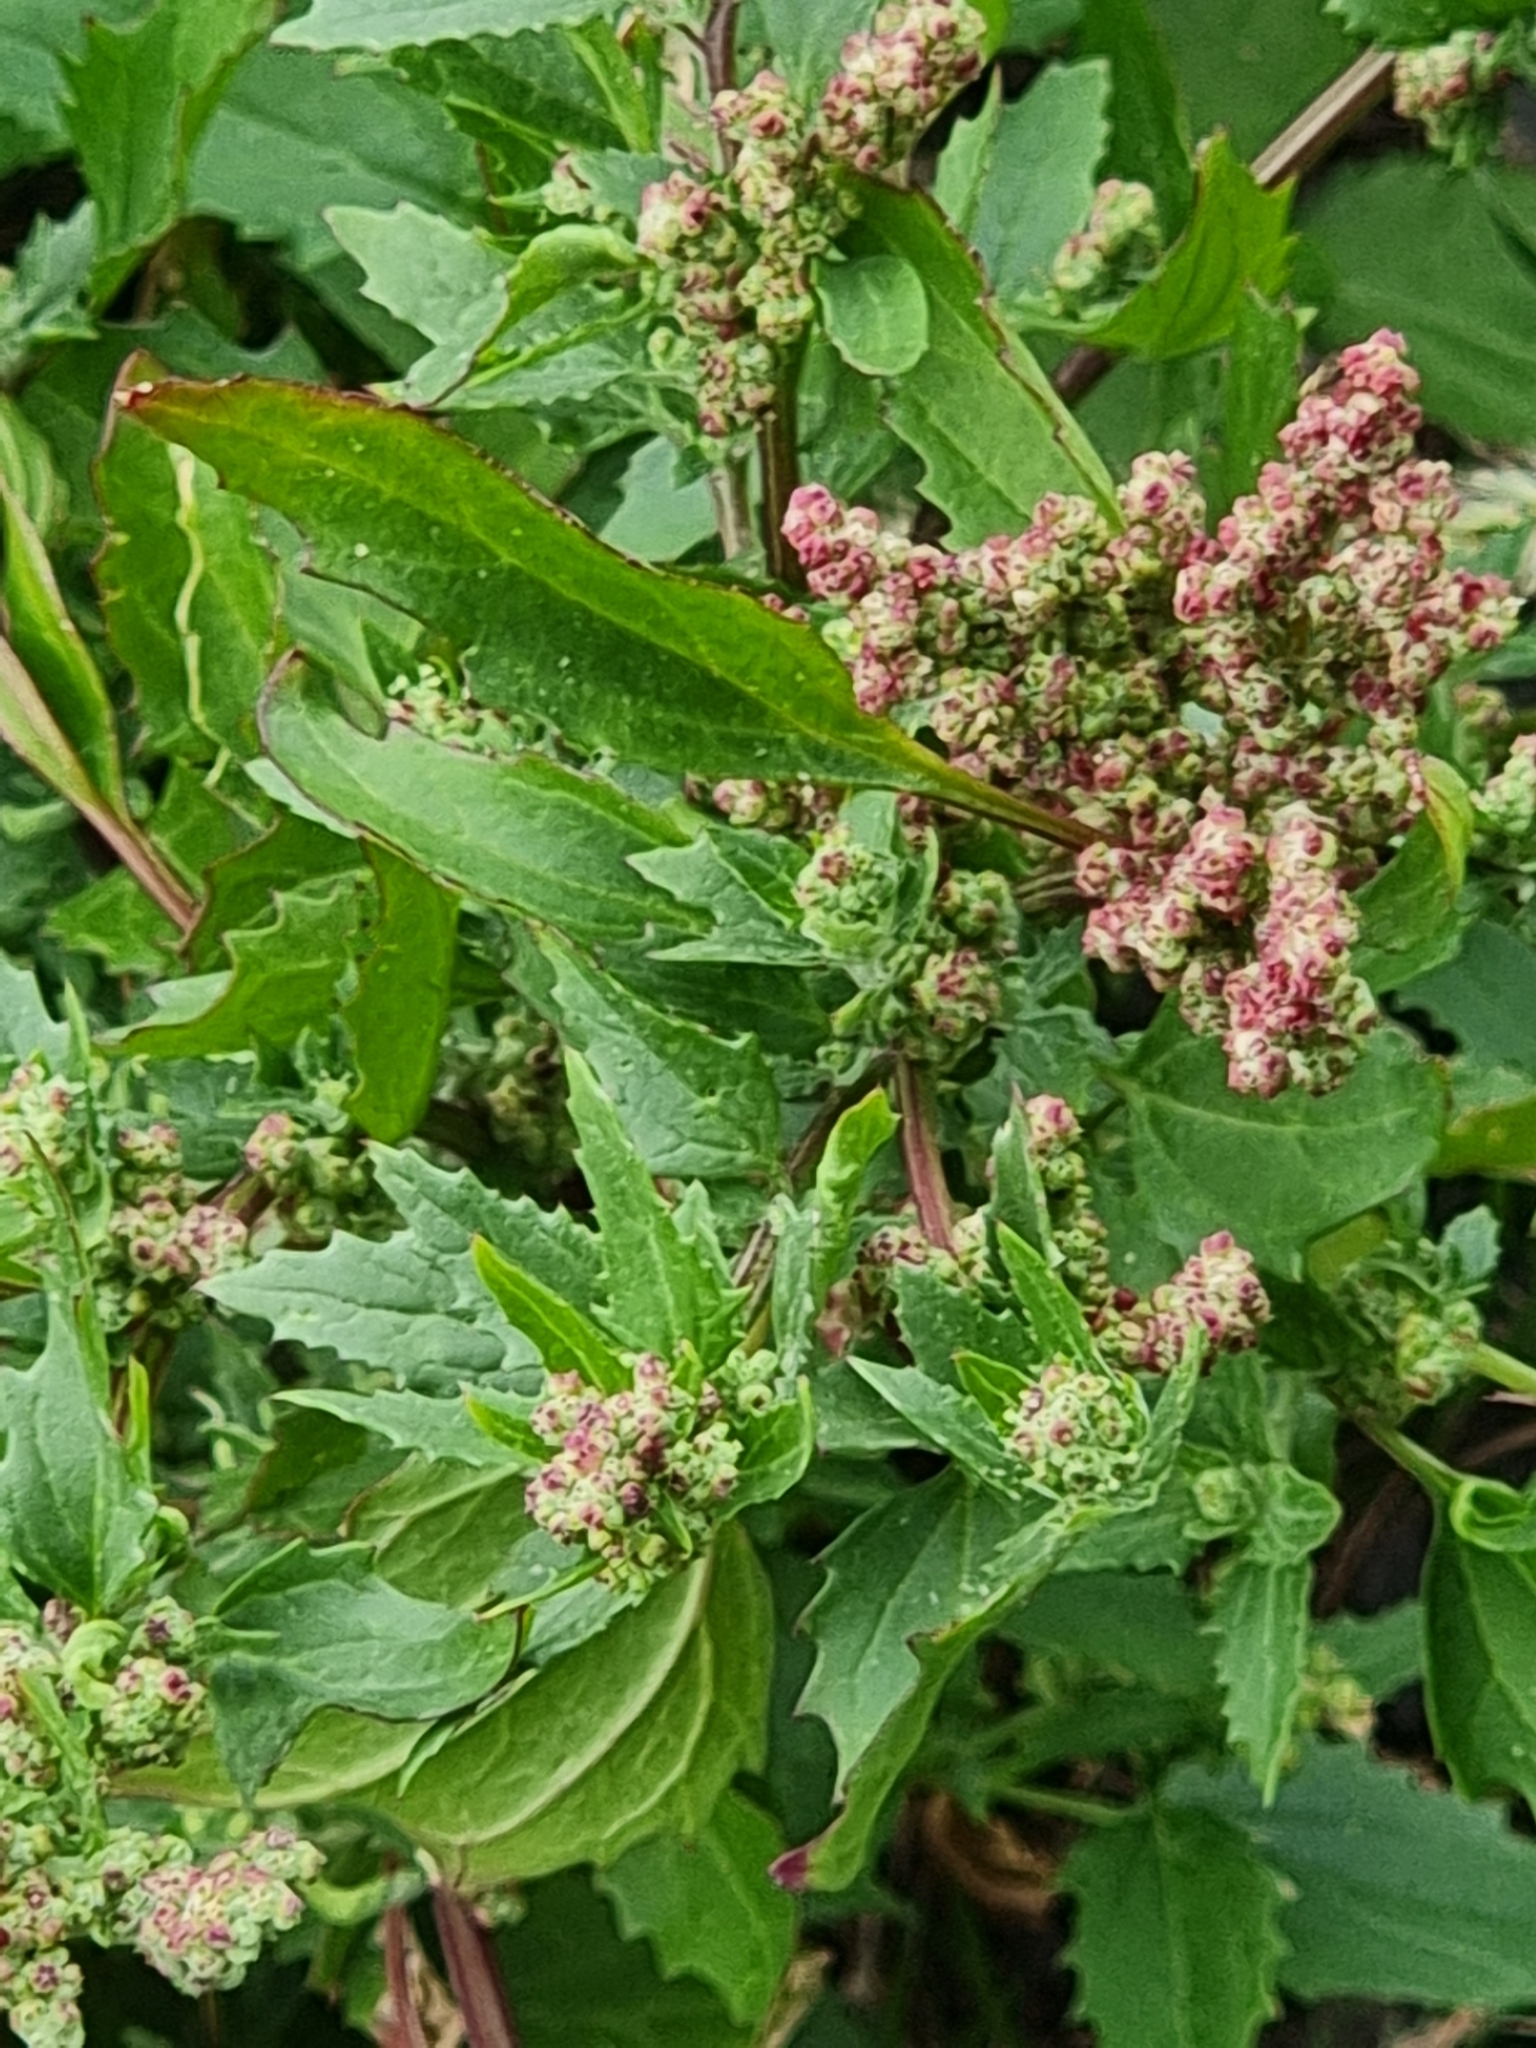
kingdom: Plantae
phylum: Tracheophyta
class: Magnoliopsida
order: Caryophyllales
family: Amaranthaceae
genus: Chenopodiastrum
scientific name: Chenopodiastrum murale
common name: Sowbane
